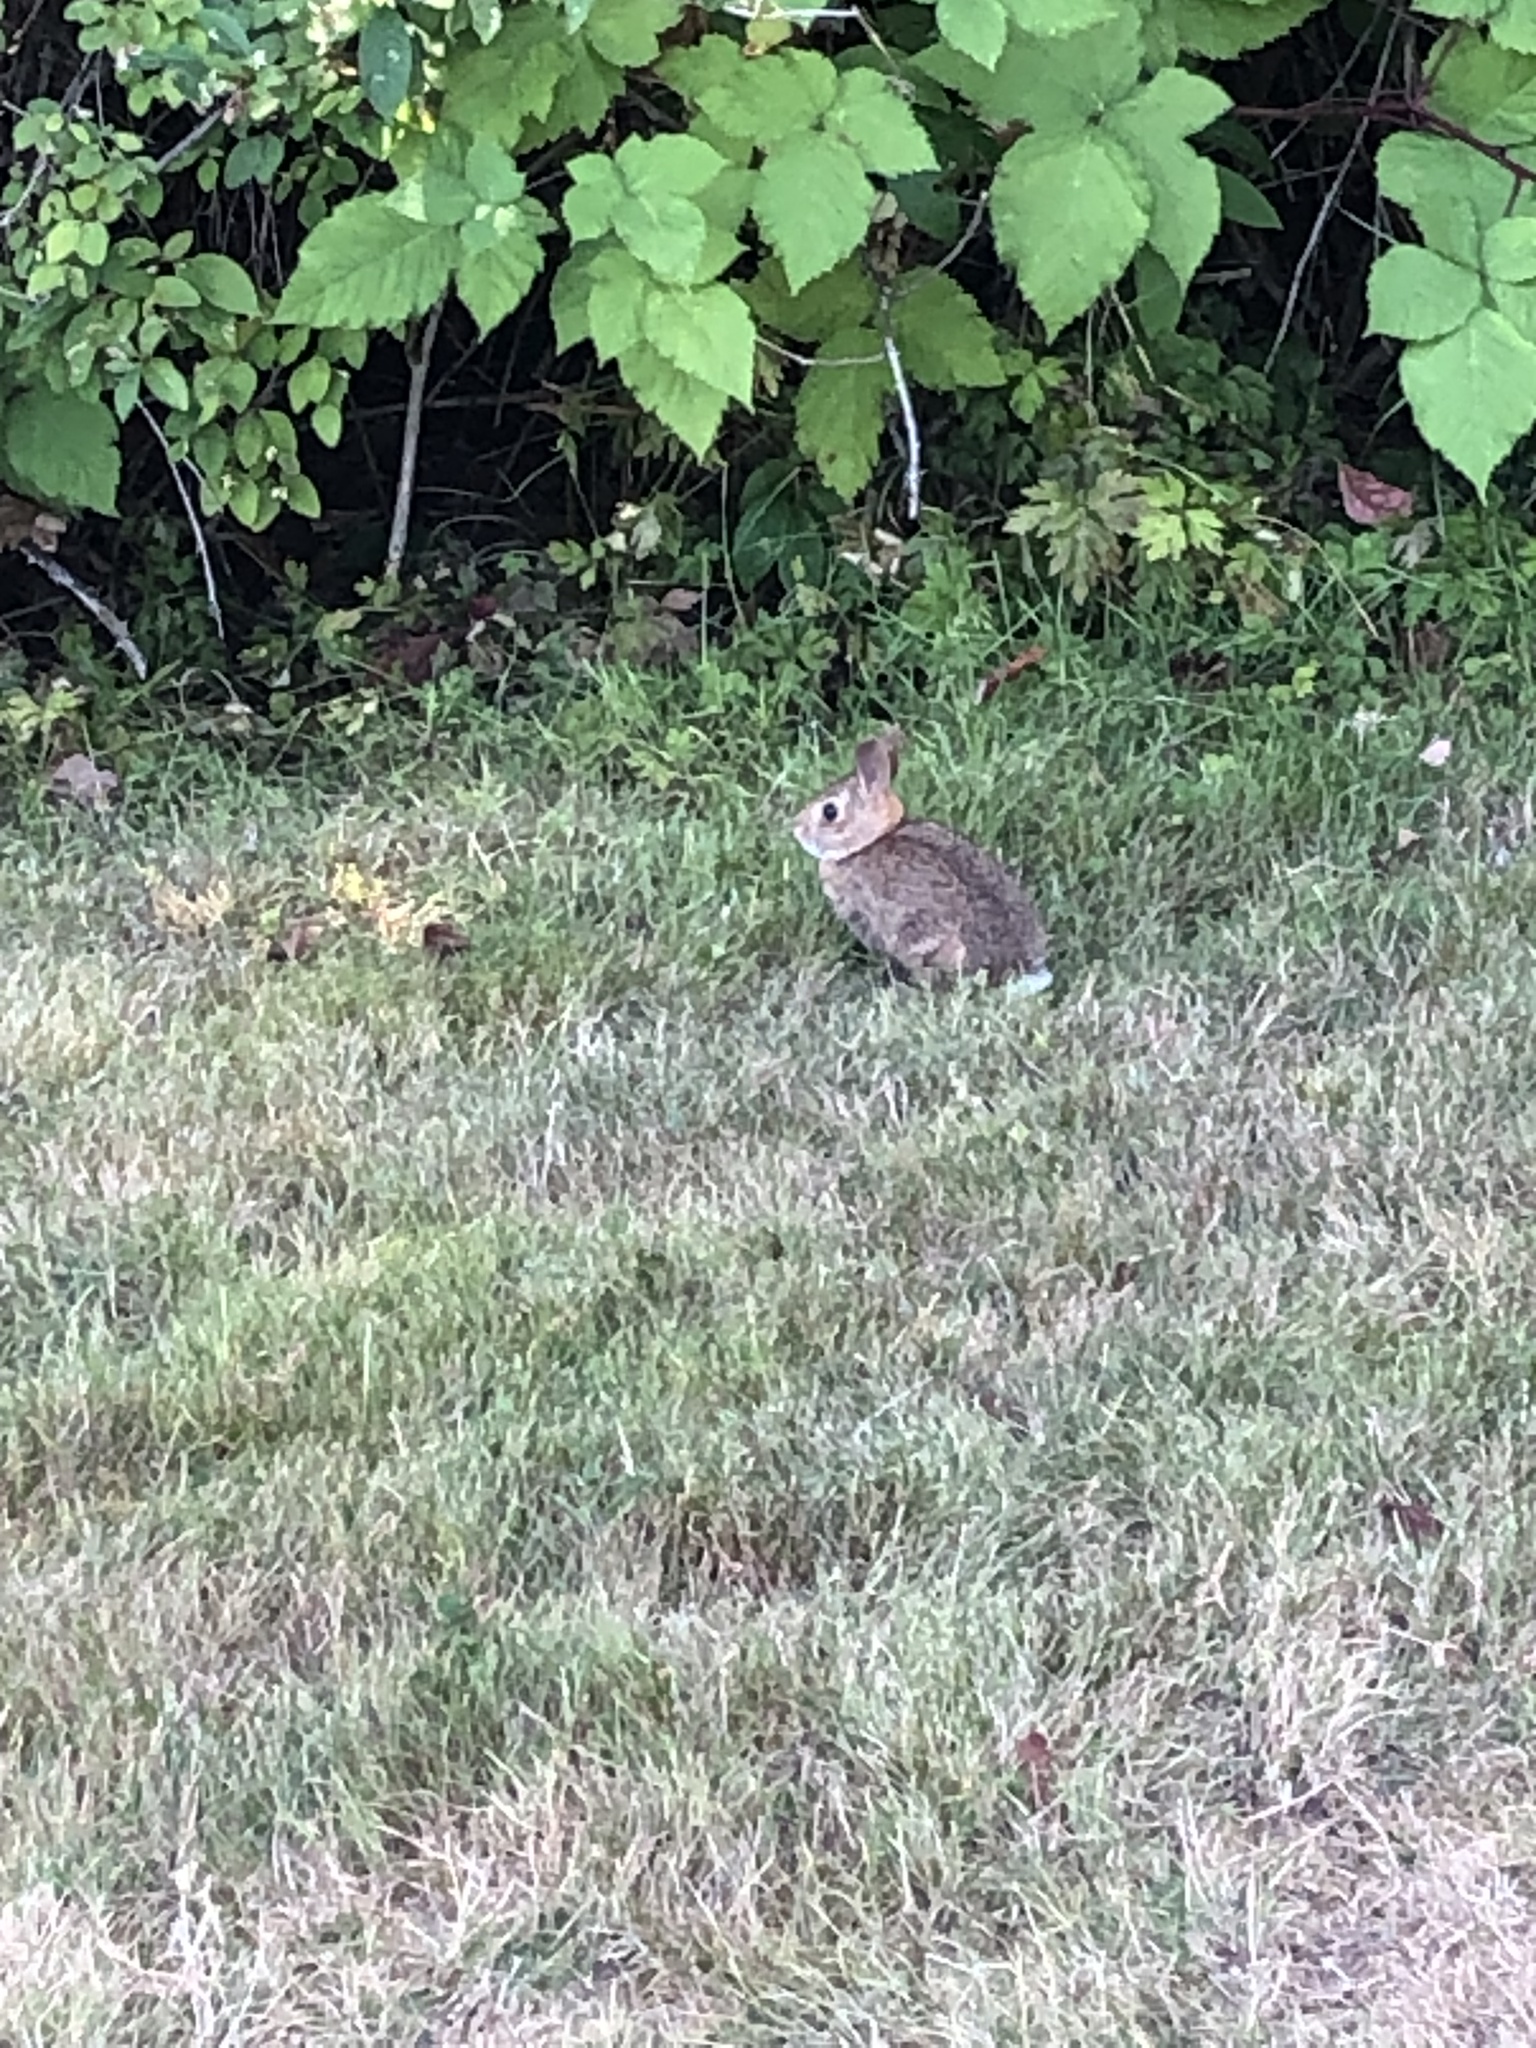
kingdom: Animalia
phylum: Chordata
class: Mammalia
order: Lagomorpha
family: Leporidae
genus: Sylvilagus
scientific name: Sylvilagus floridanus
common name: Eastern cottontail
